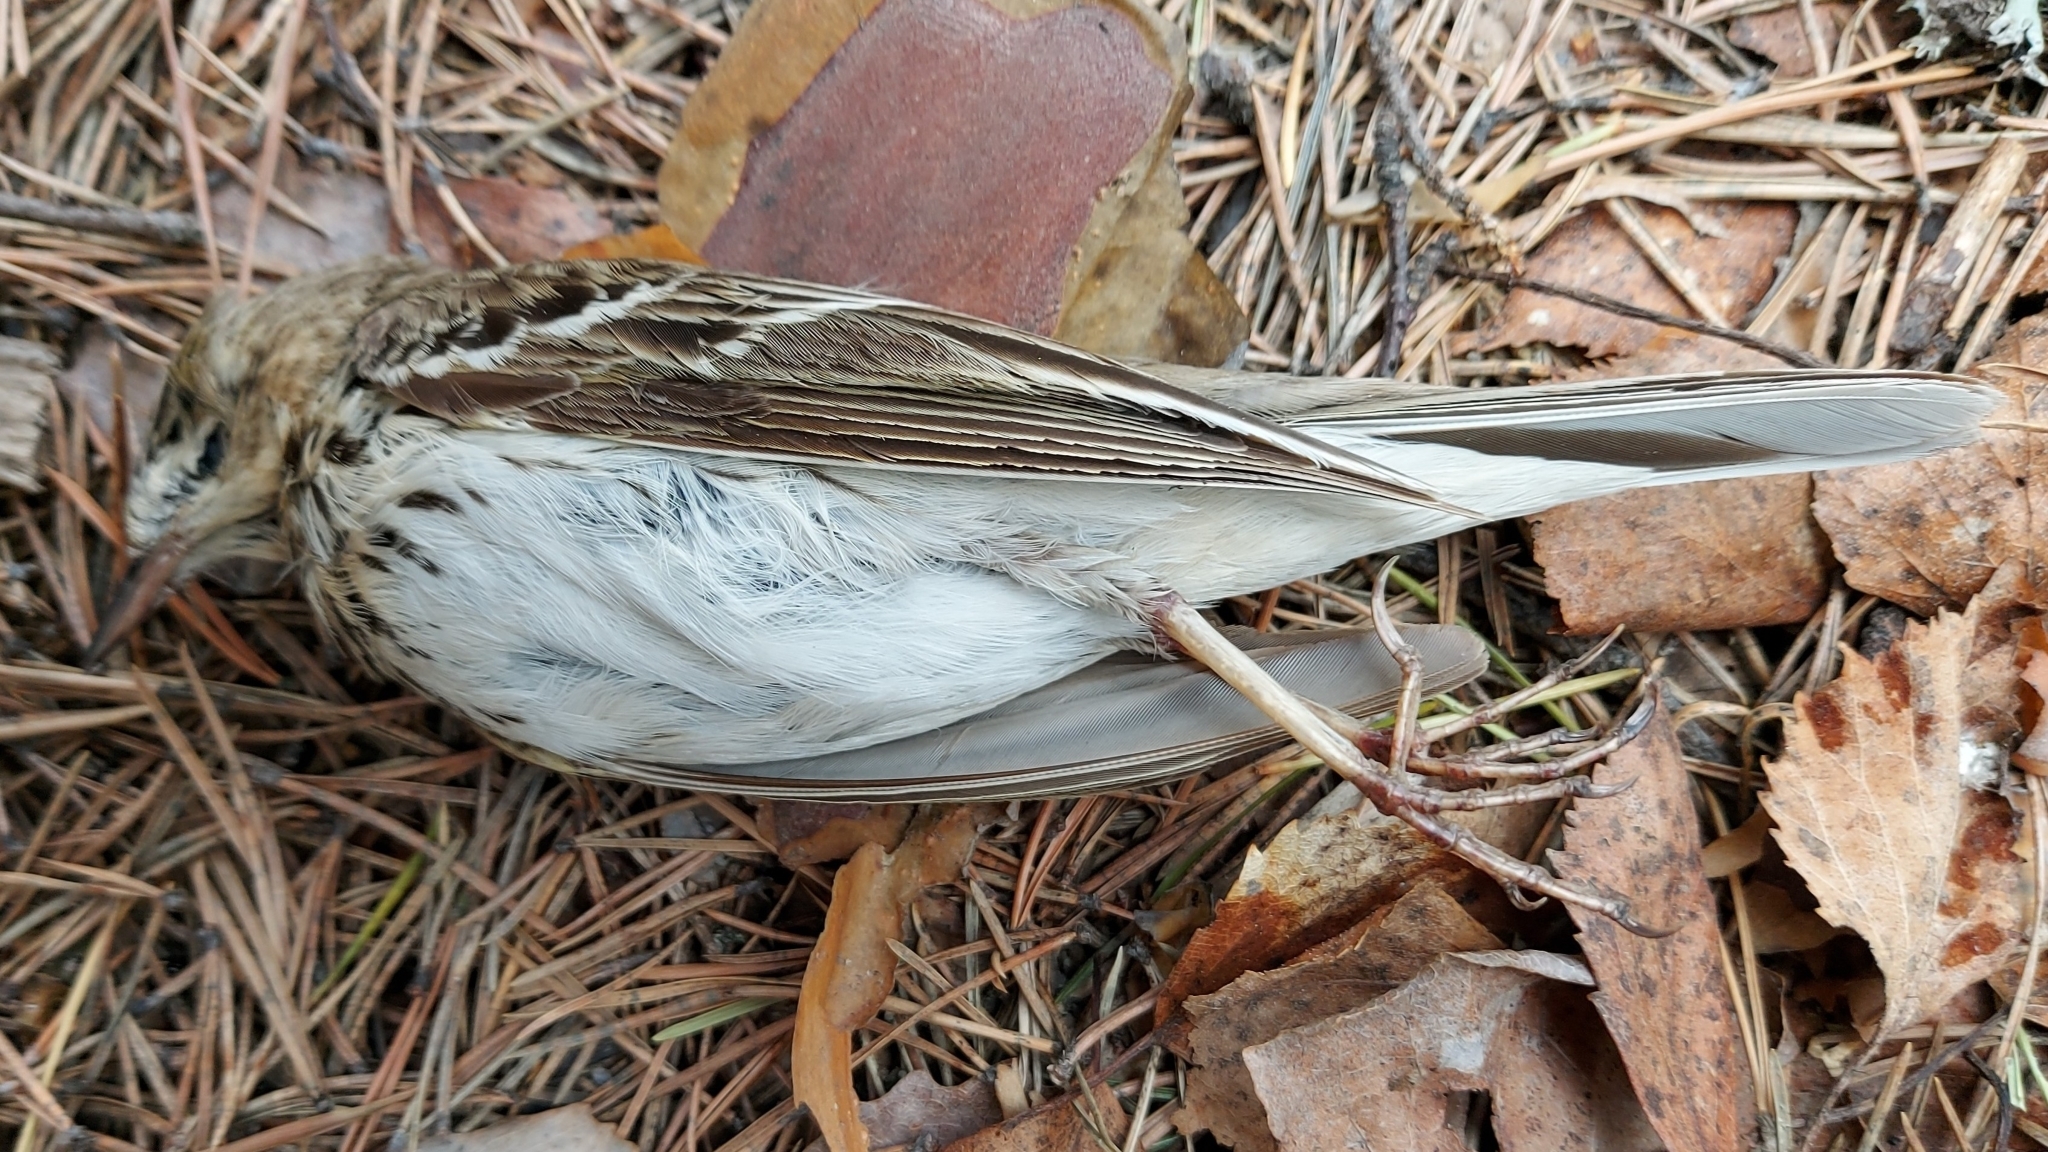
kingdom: Animalia
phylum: Chordata
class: Aves
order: Passeriformes
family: Motacillidae
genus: Anthus
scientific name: Anthus trivialis
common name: Tree pipit
